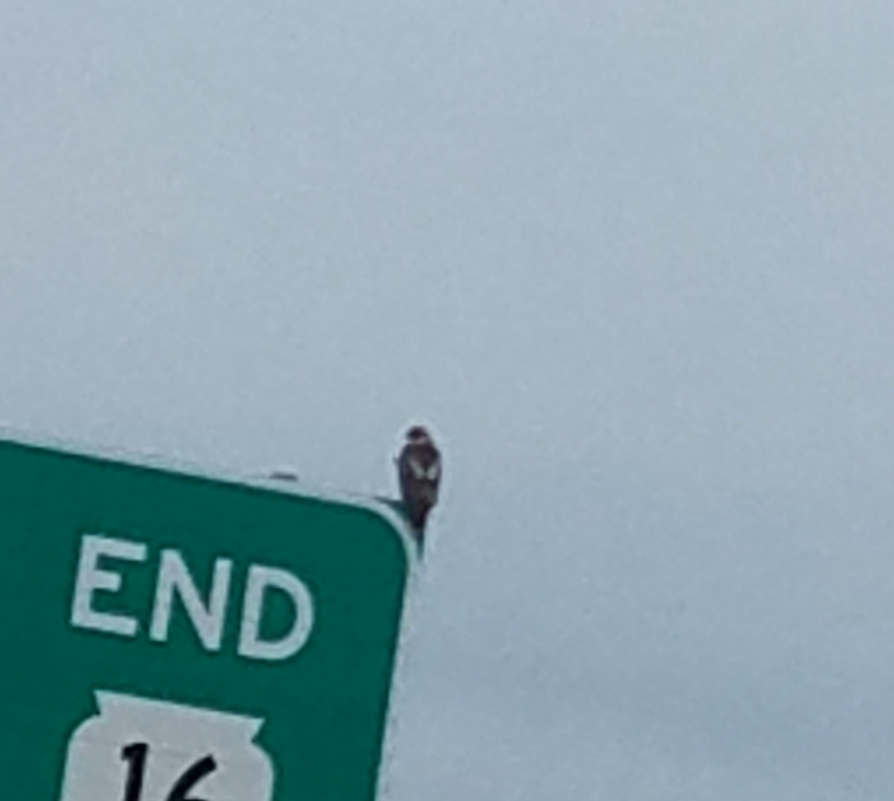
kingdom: Animalia
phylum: Chordata
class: Aves
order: Accipitriformes
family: Accipitridae
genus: Buteo
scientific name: Buteo jamaicensis
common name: Red-tailed hawk
